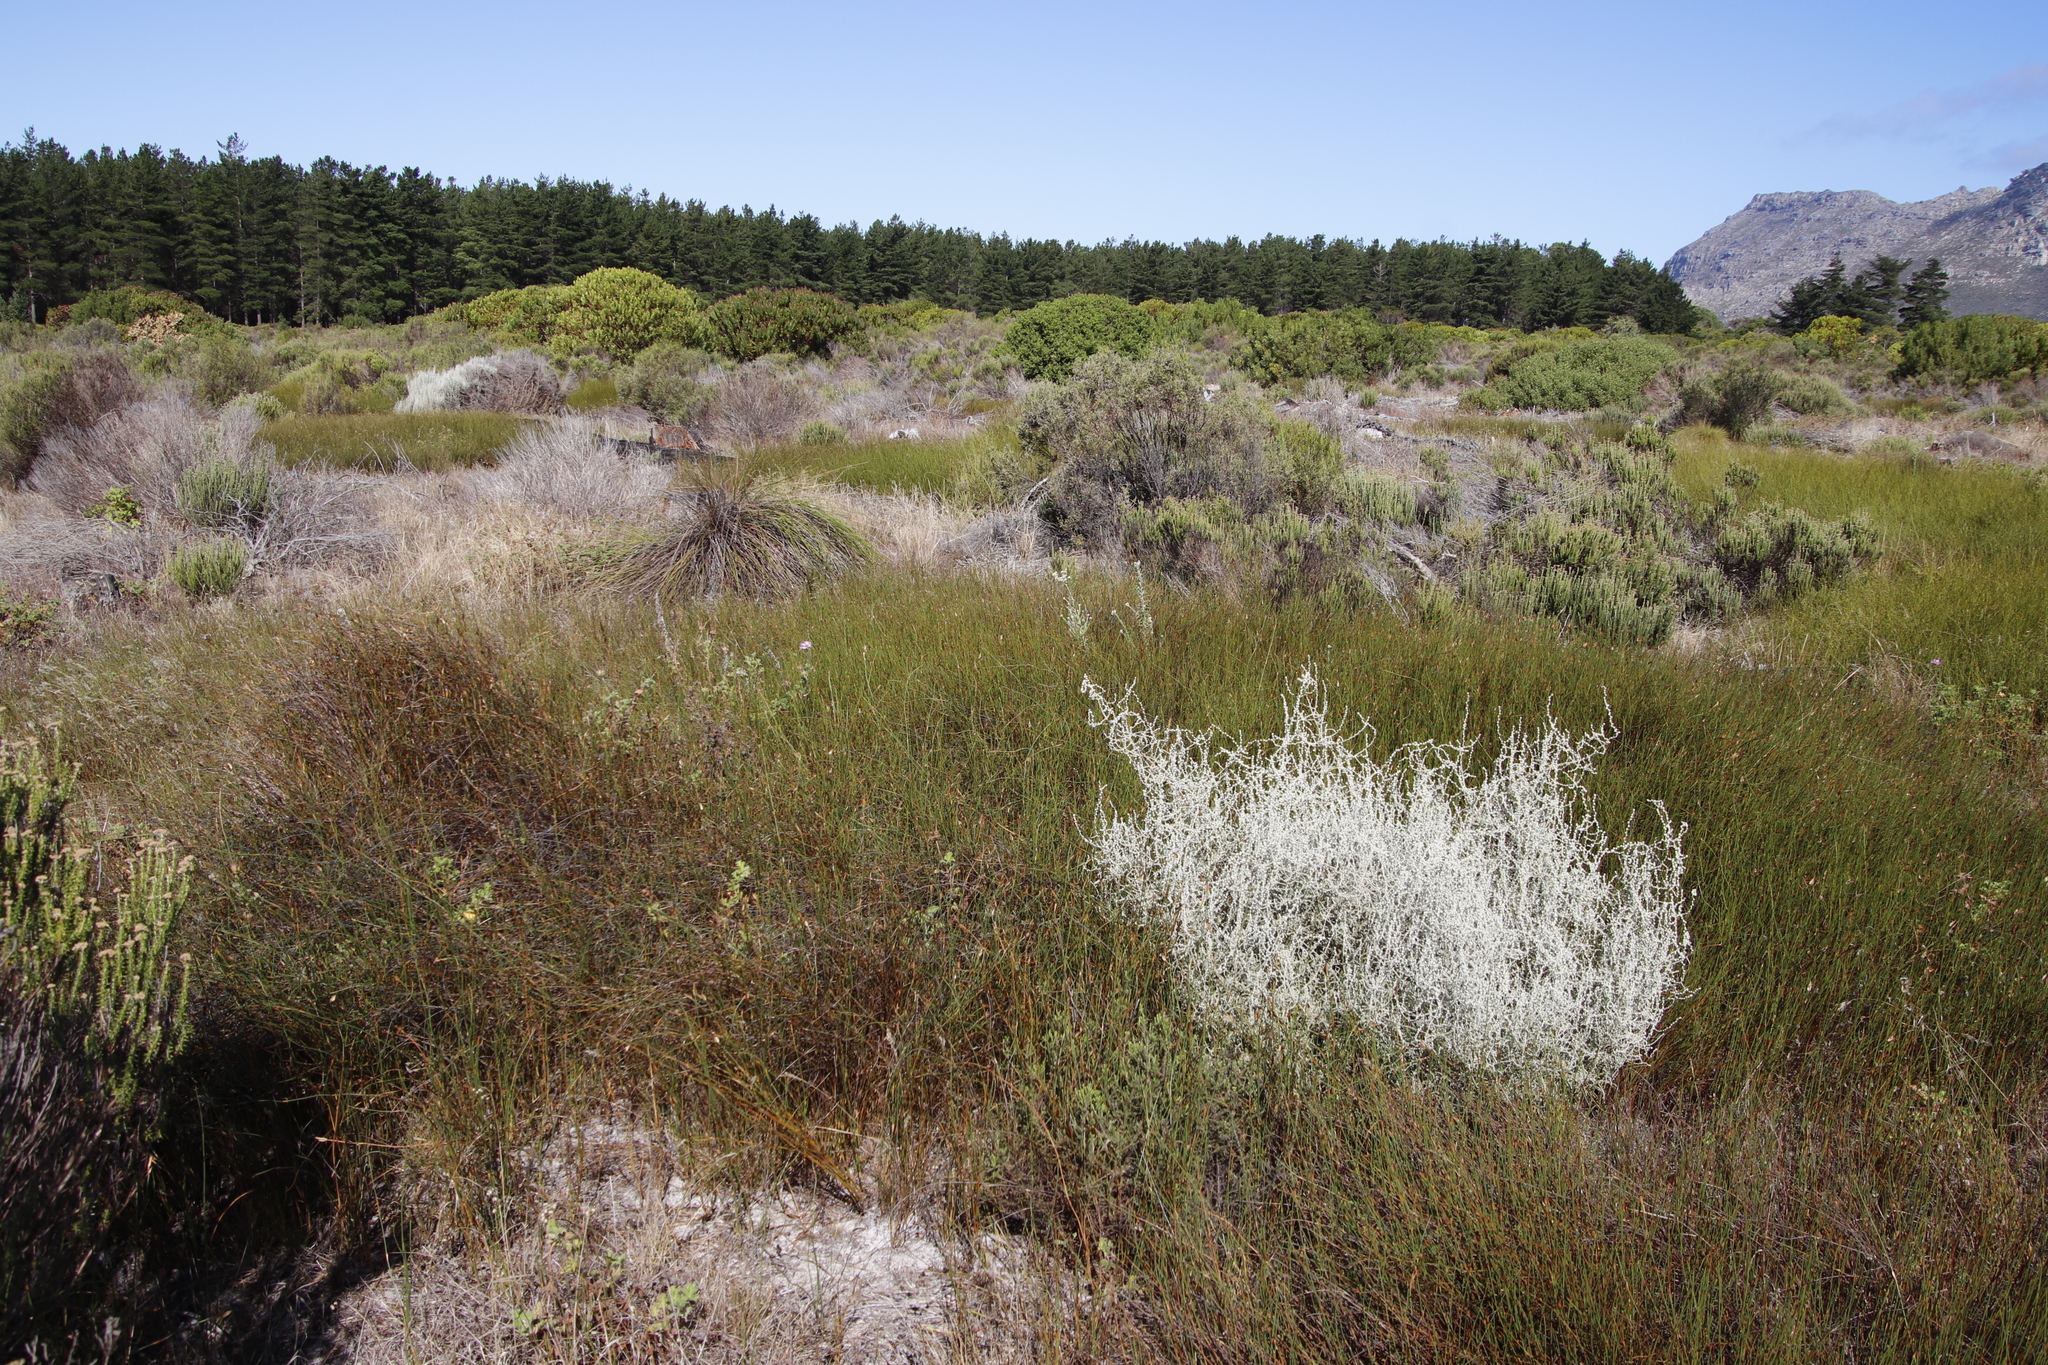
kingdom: Plantae
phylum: Tracheophyta
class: Liliopsida
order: Poales
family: Restionaceae
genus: Willdenowia
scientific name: Willdenowia sulcata
